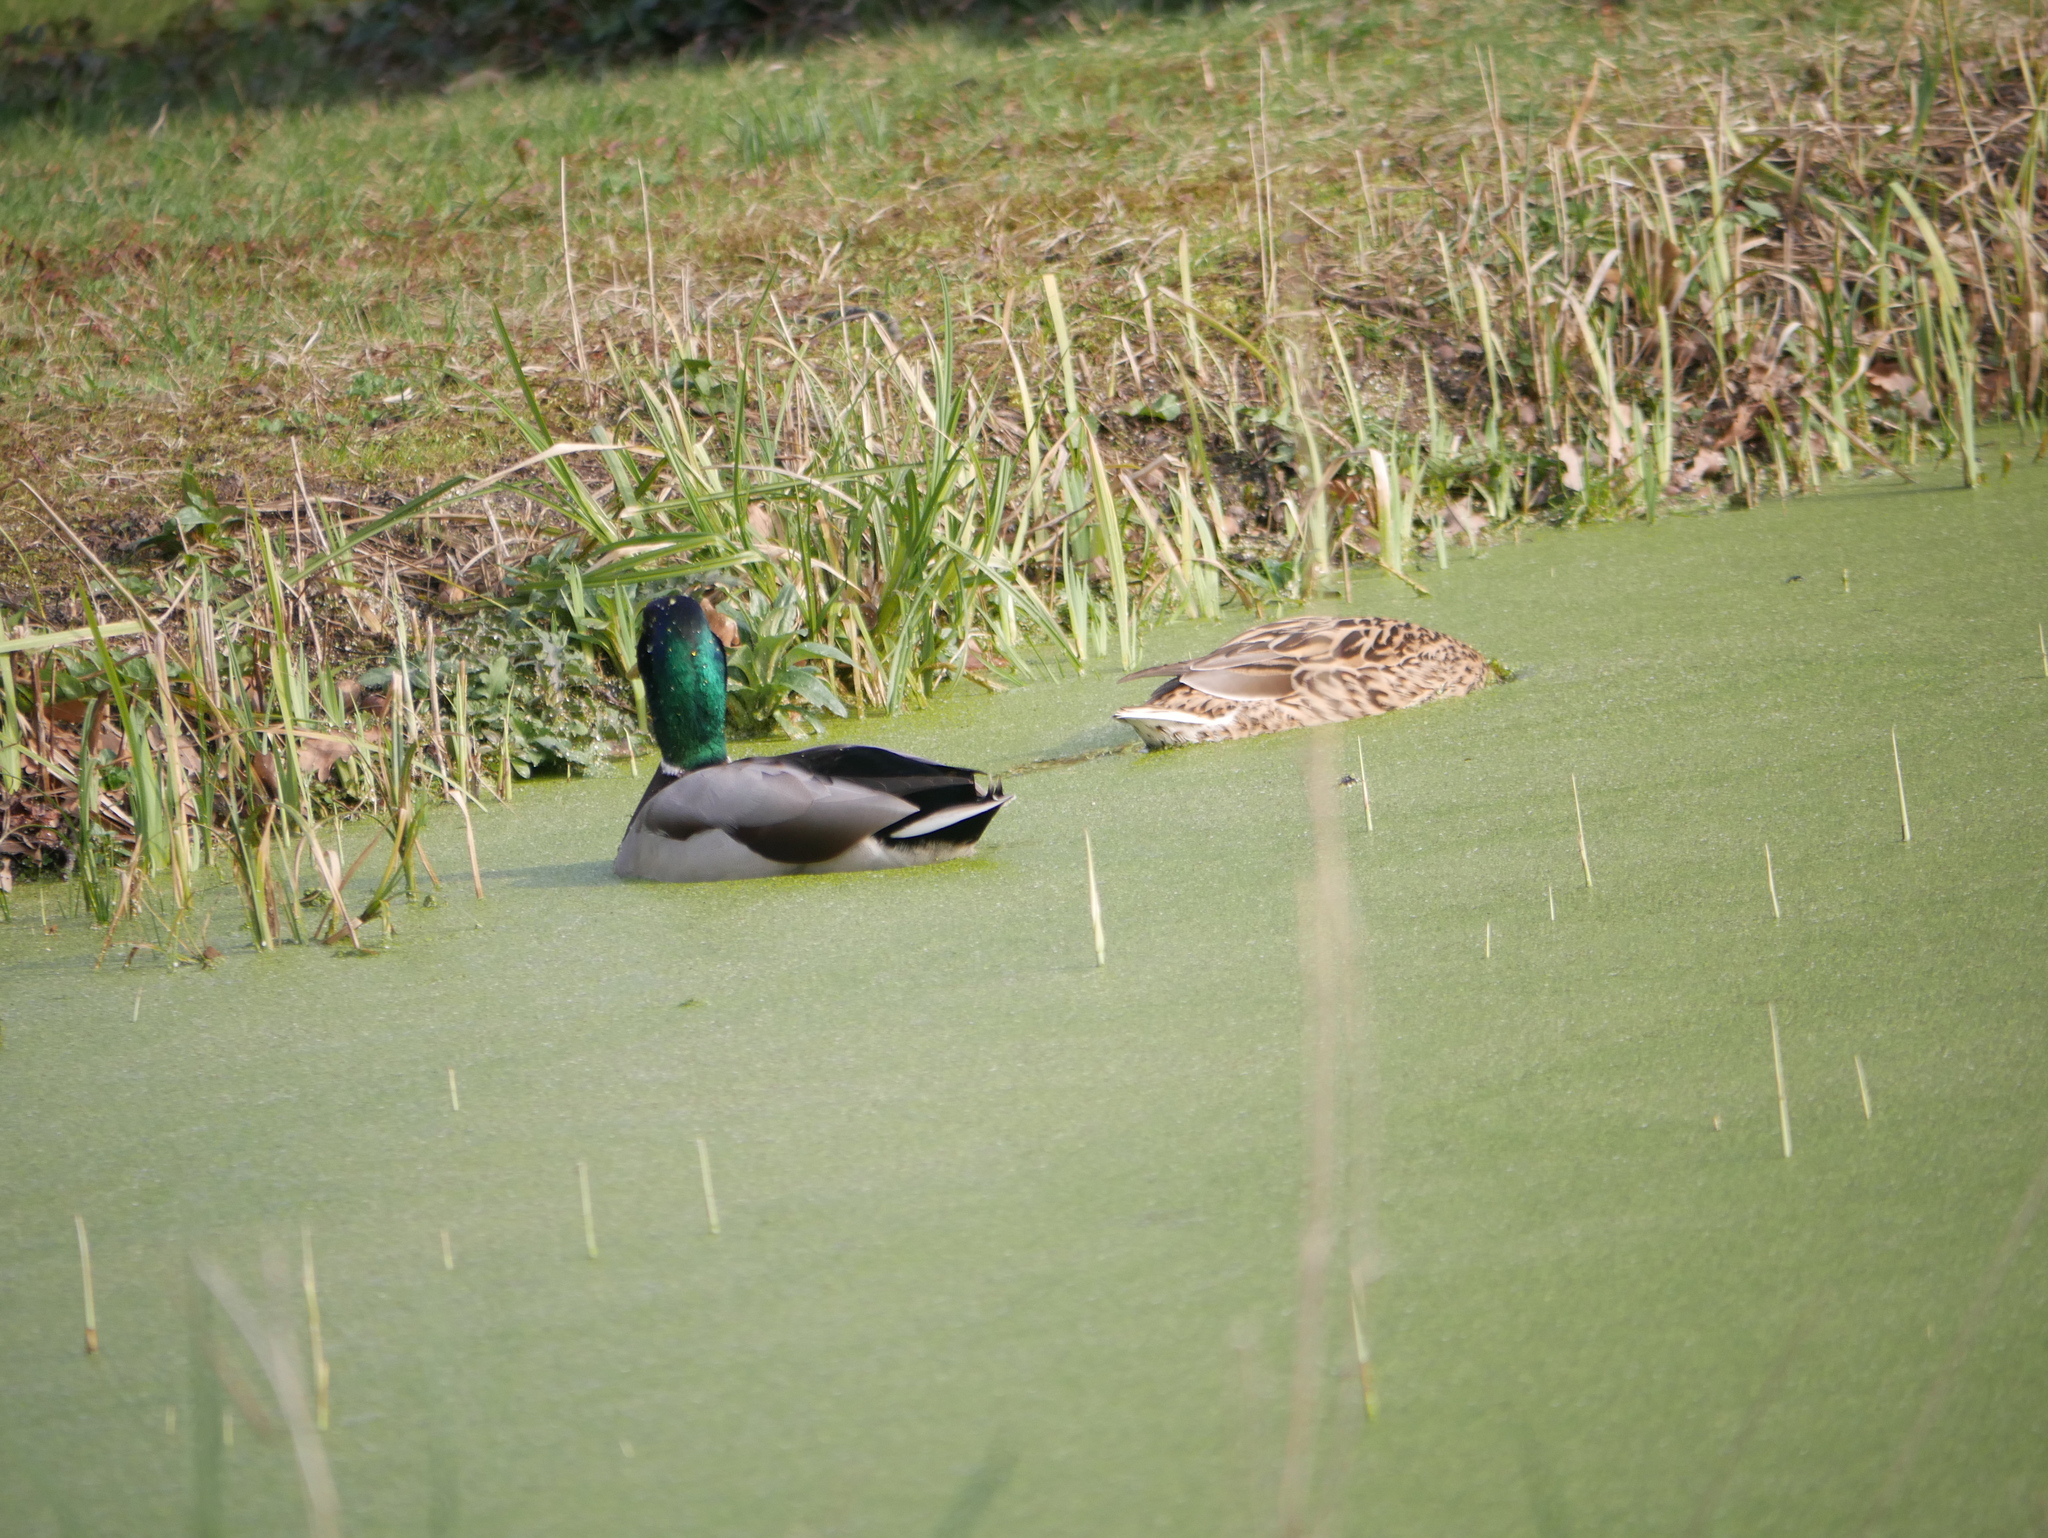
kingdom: Animalia
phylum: Chordata
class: Aves
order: Anseriformes
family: Anatidae
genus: Anas
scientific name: Anas platyrhynchos
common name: Mallard
